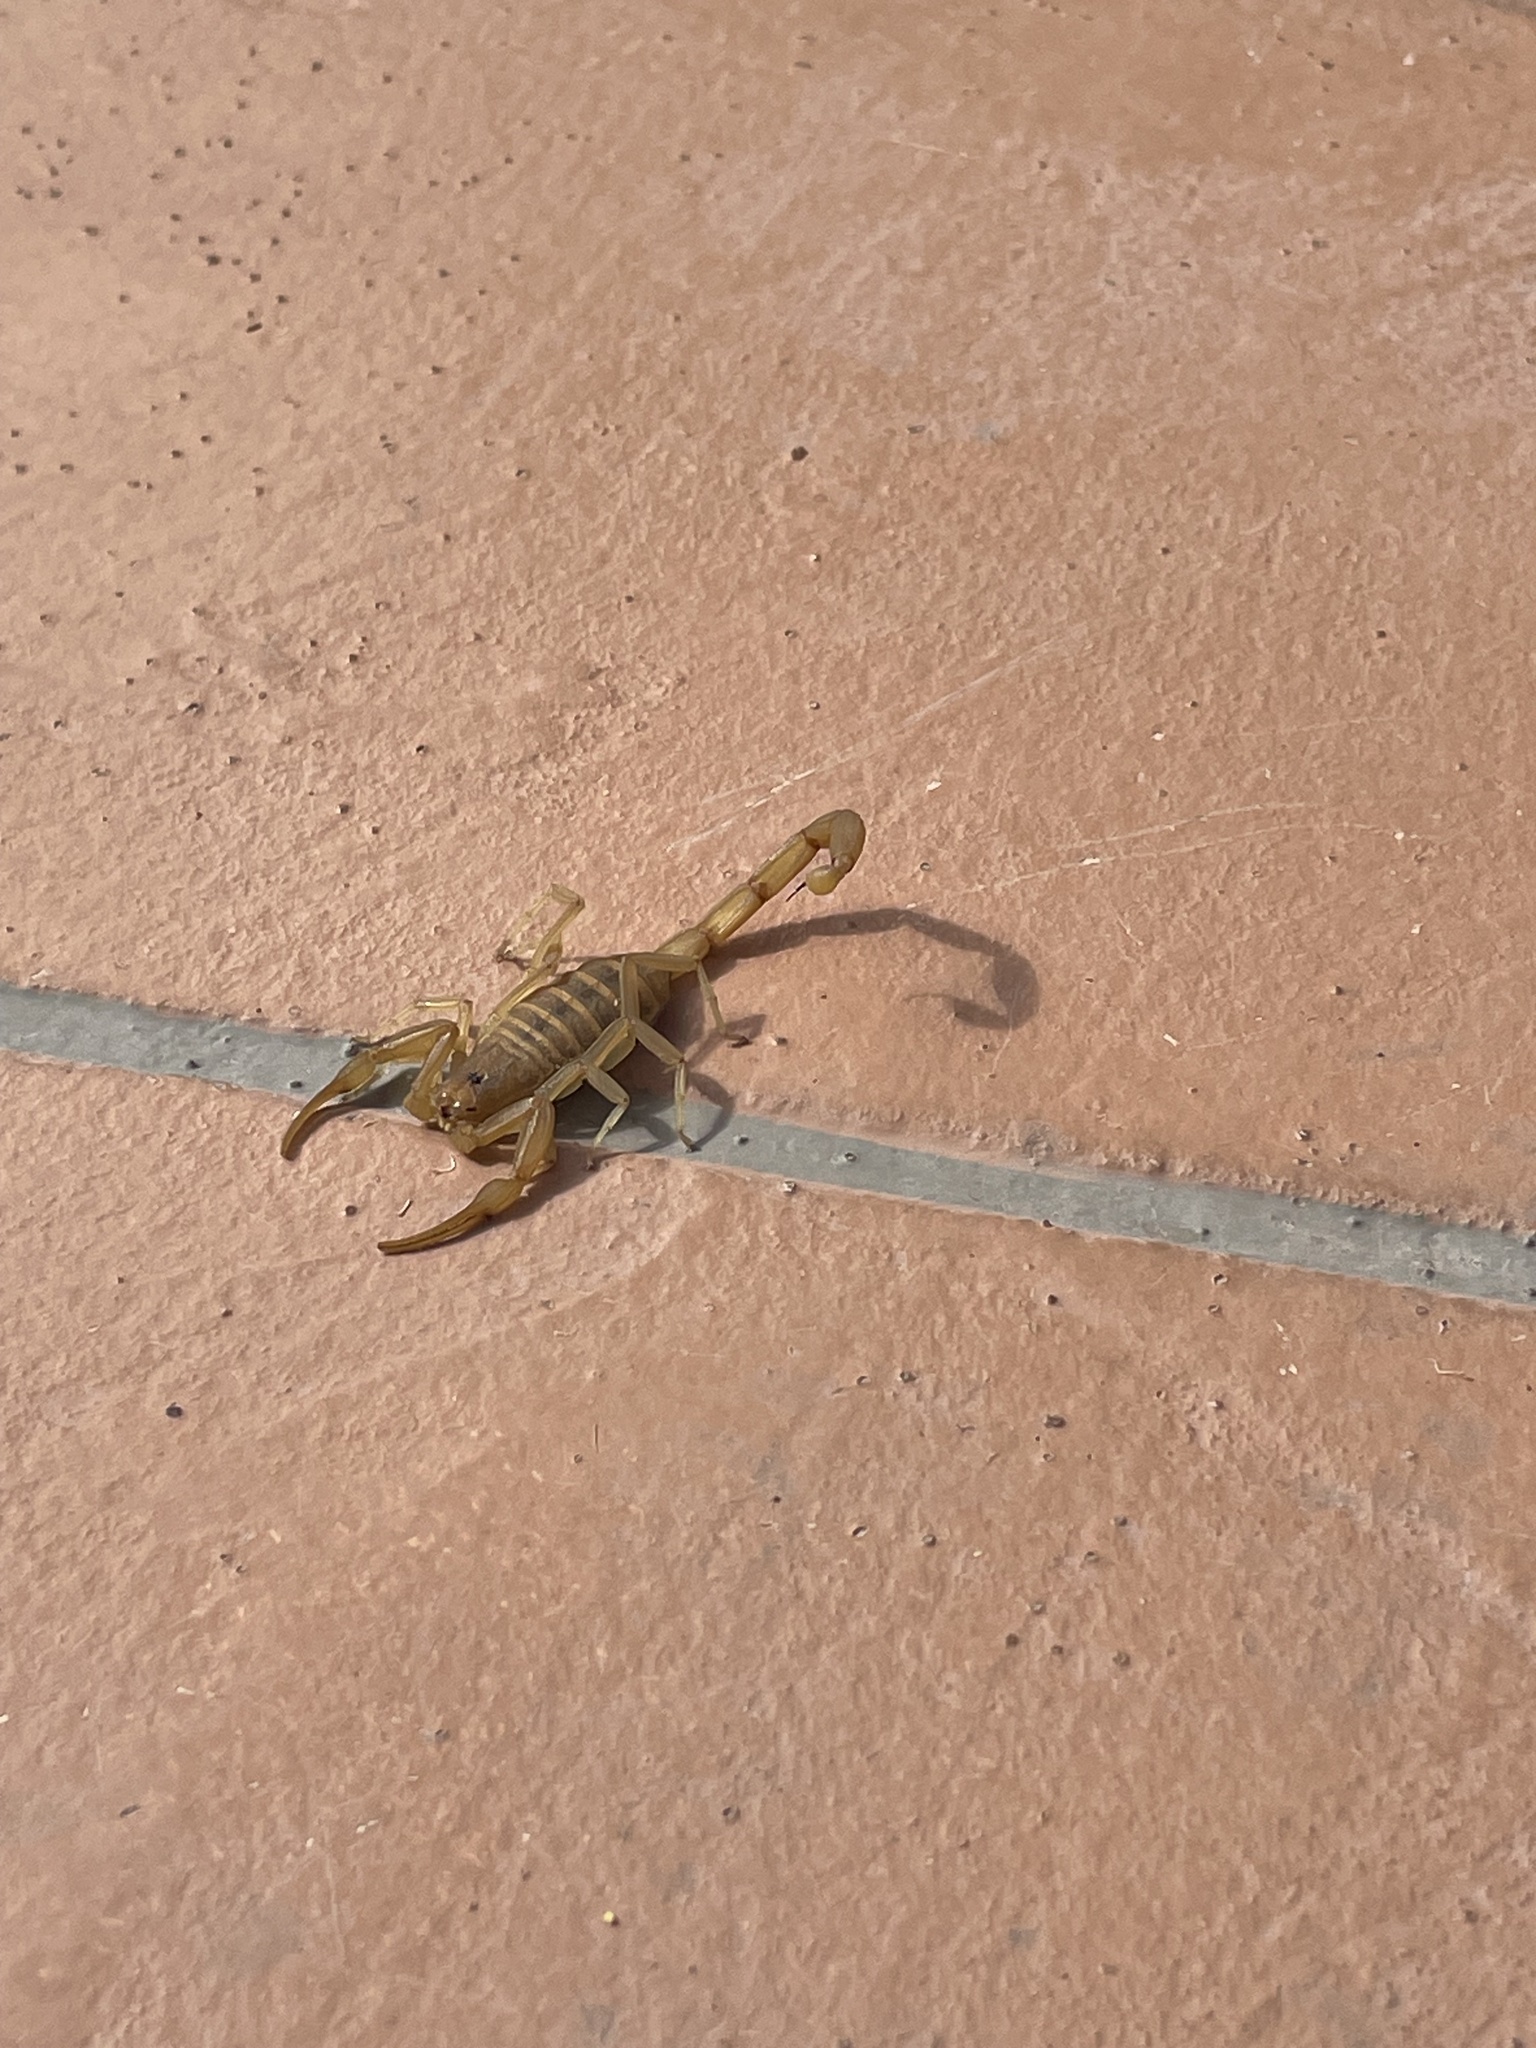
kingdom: Animalia
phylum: Arthropoda
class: Arachnida
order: Scorpiones
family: Buthidae
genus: Centruroides
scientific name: Centruroides sculpturatus
